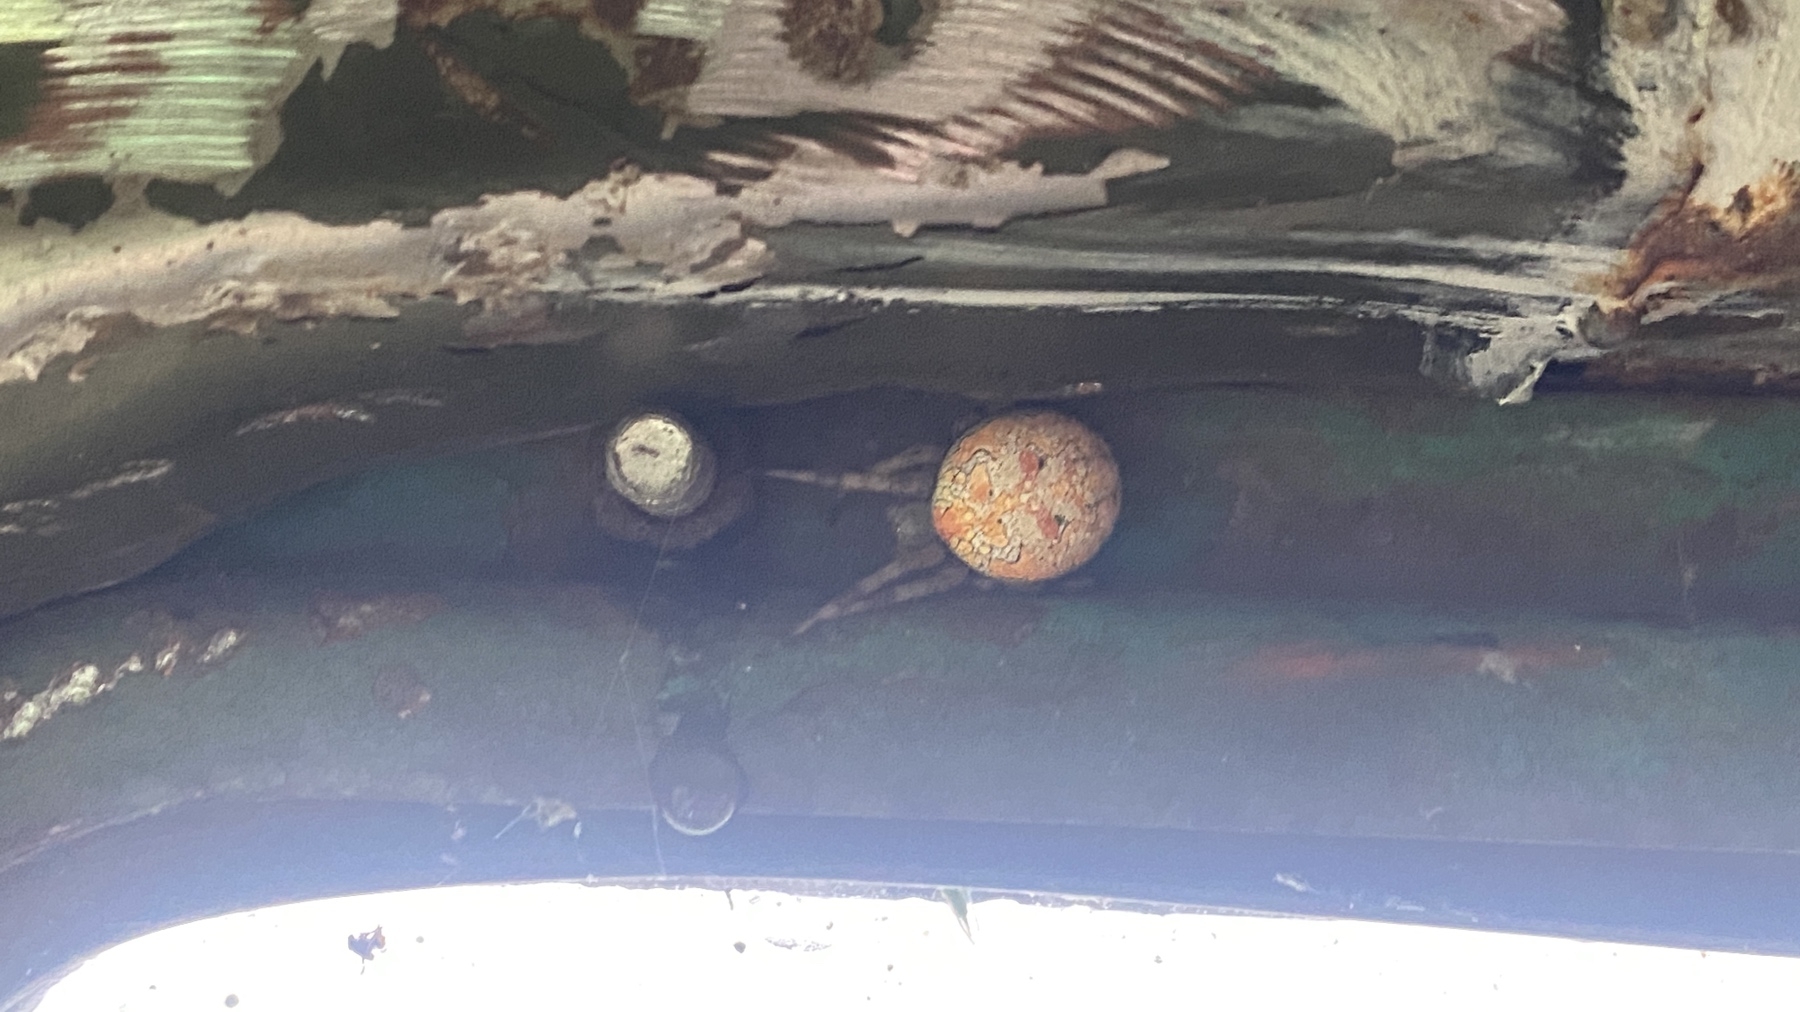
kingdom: Animalia
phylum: Arthropoda
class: Arachnida
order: Araneae
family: Araneidae
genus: Araneus
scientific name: Araneus marmoreus
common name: Marbled orbweaver
